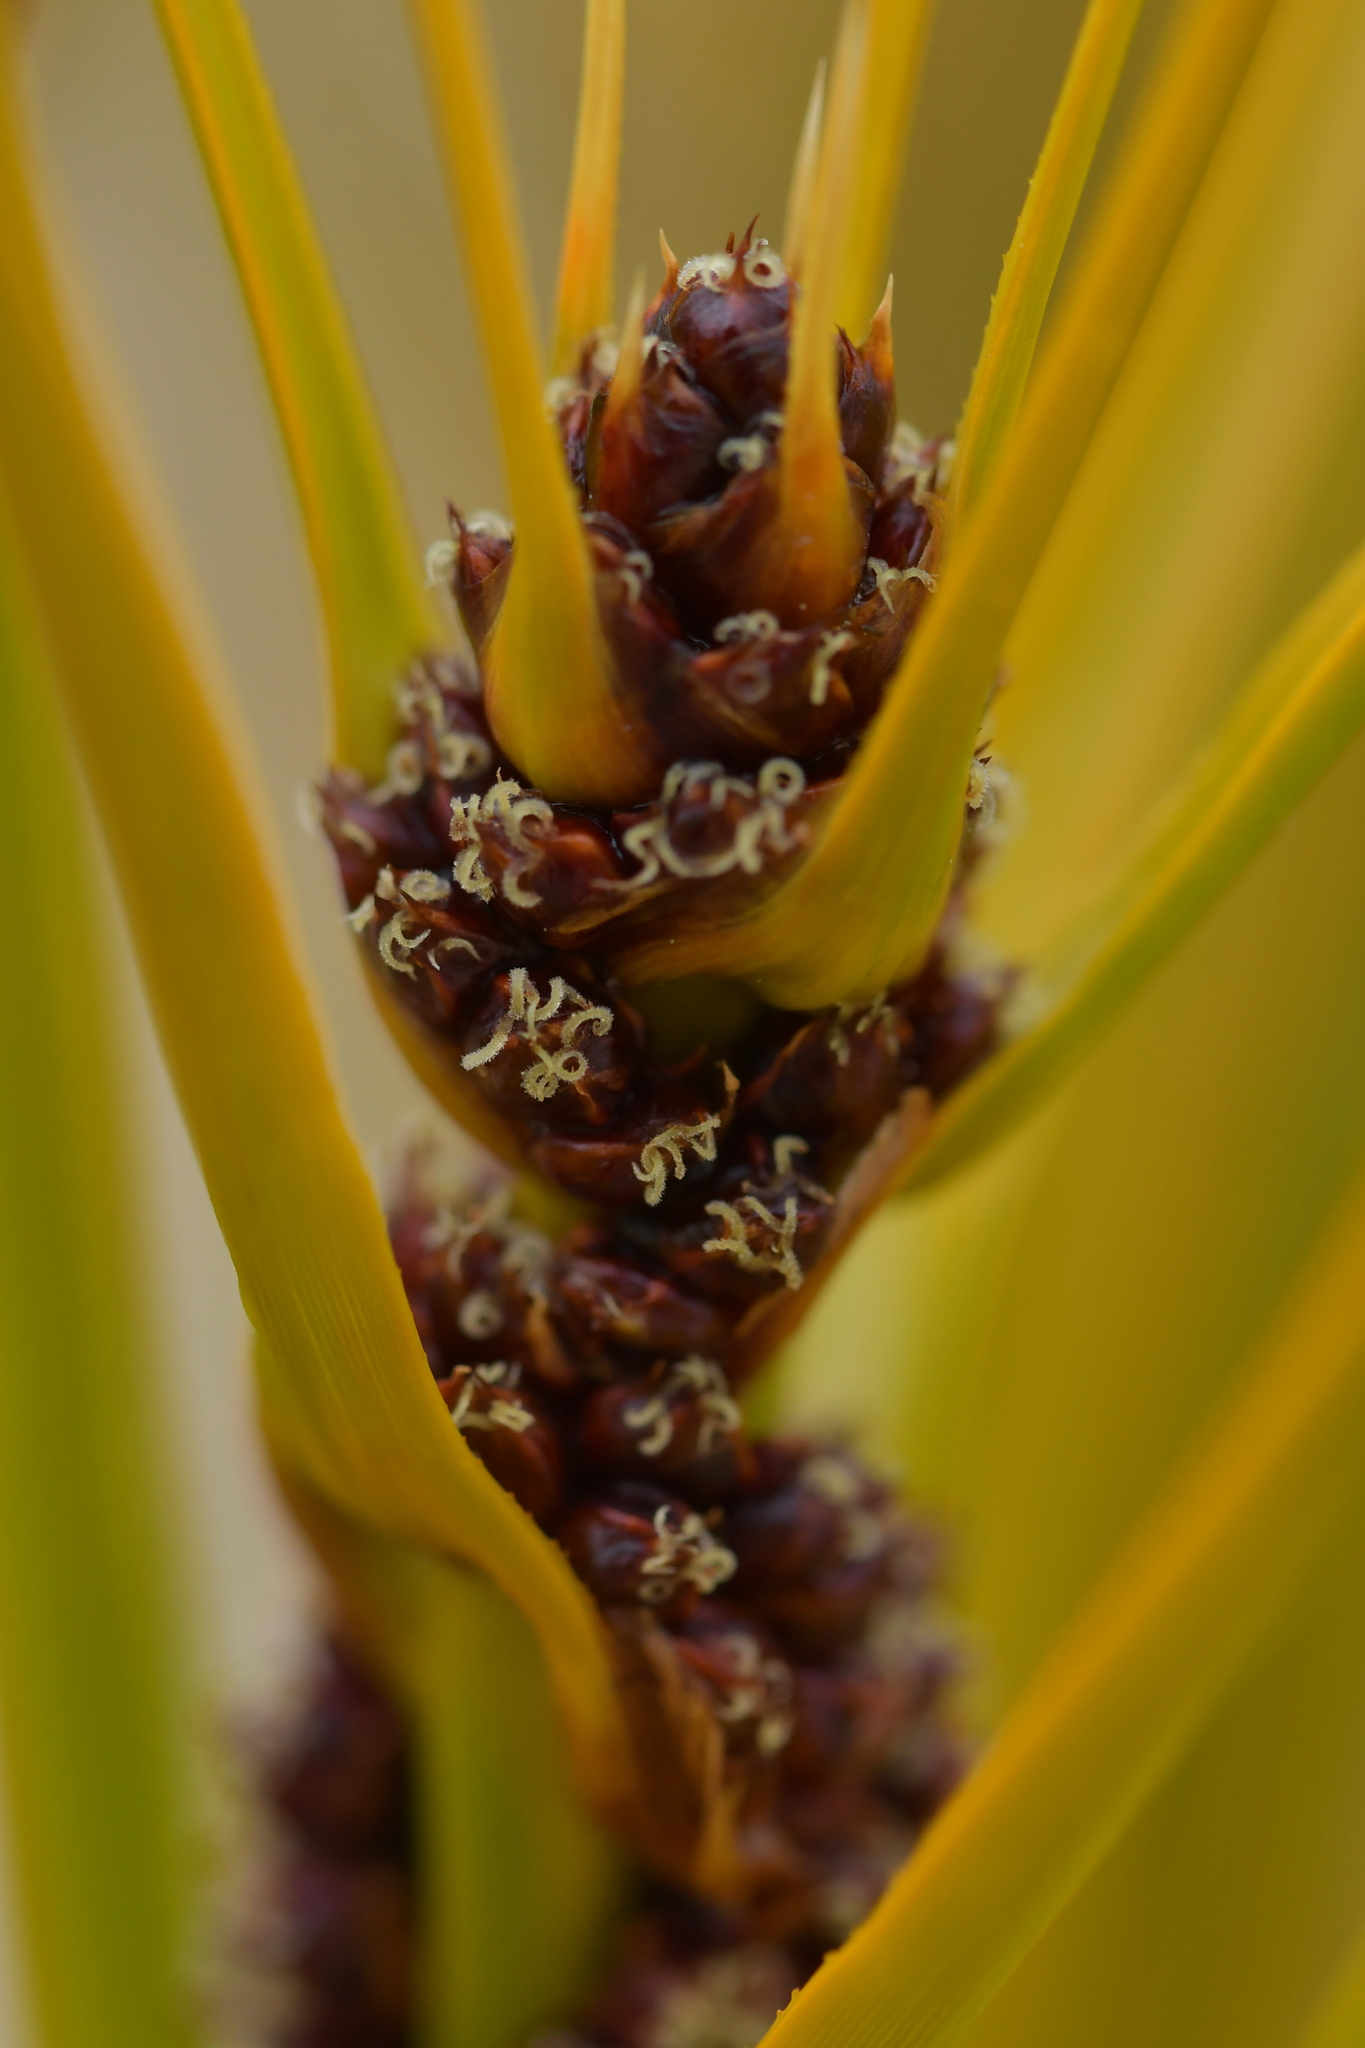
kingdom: Plantae
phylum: Tracheophyta
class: Liliopsida
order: Poales
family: Cyperaceae
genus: Ficinia
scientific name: Ficinia spiralis
